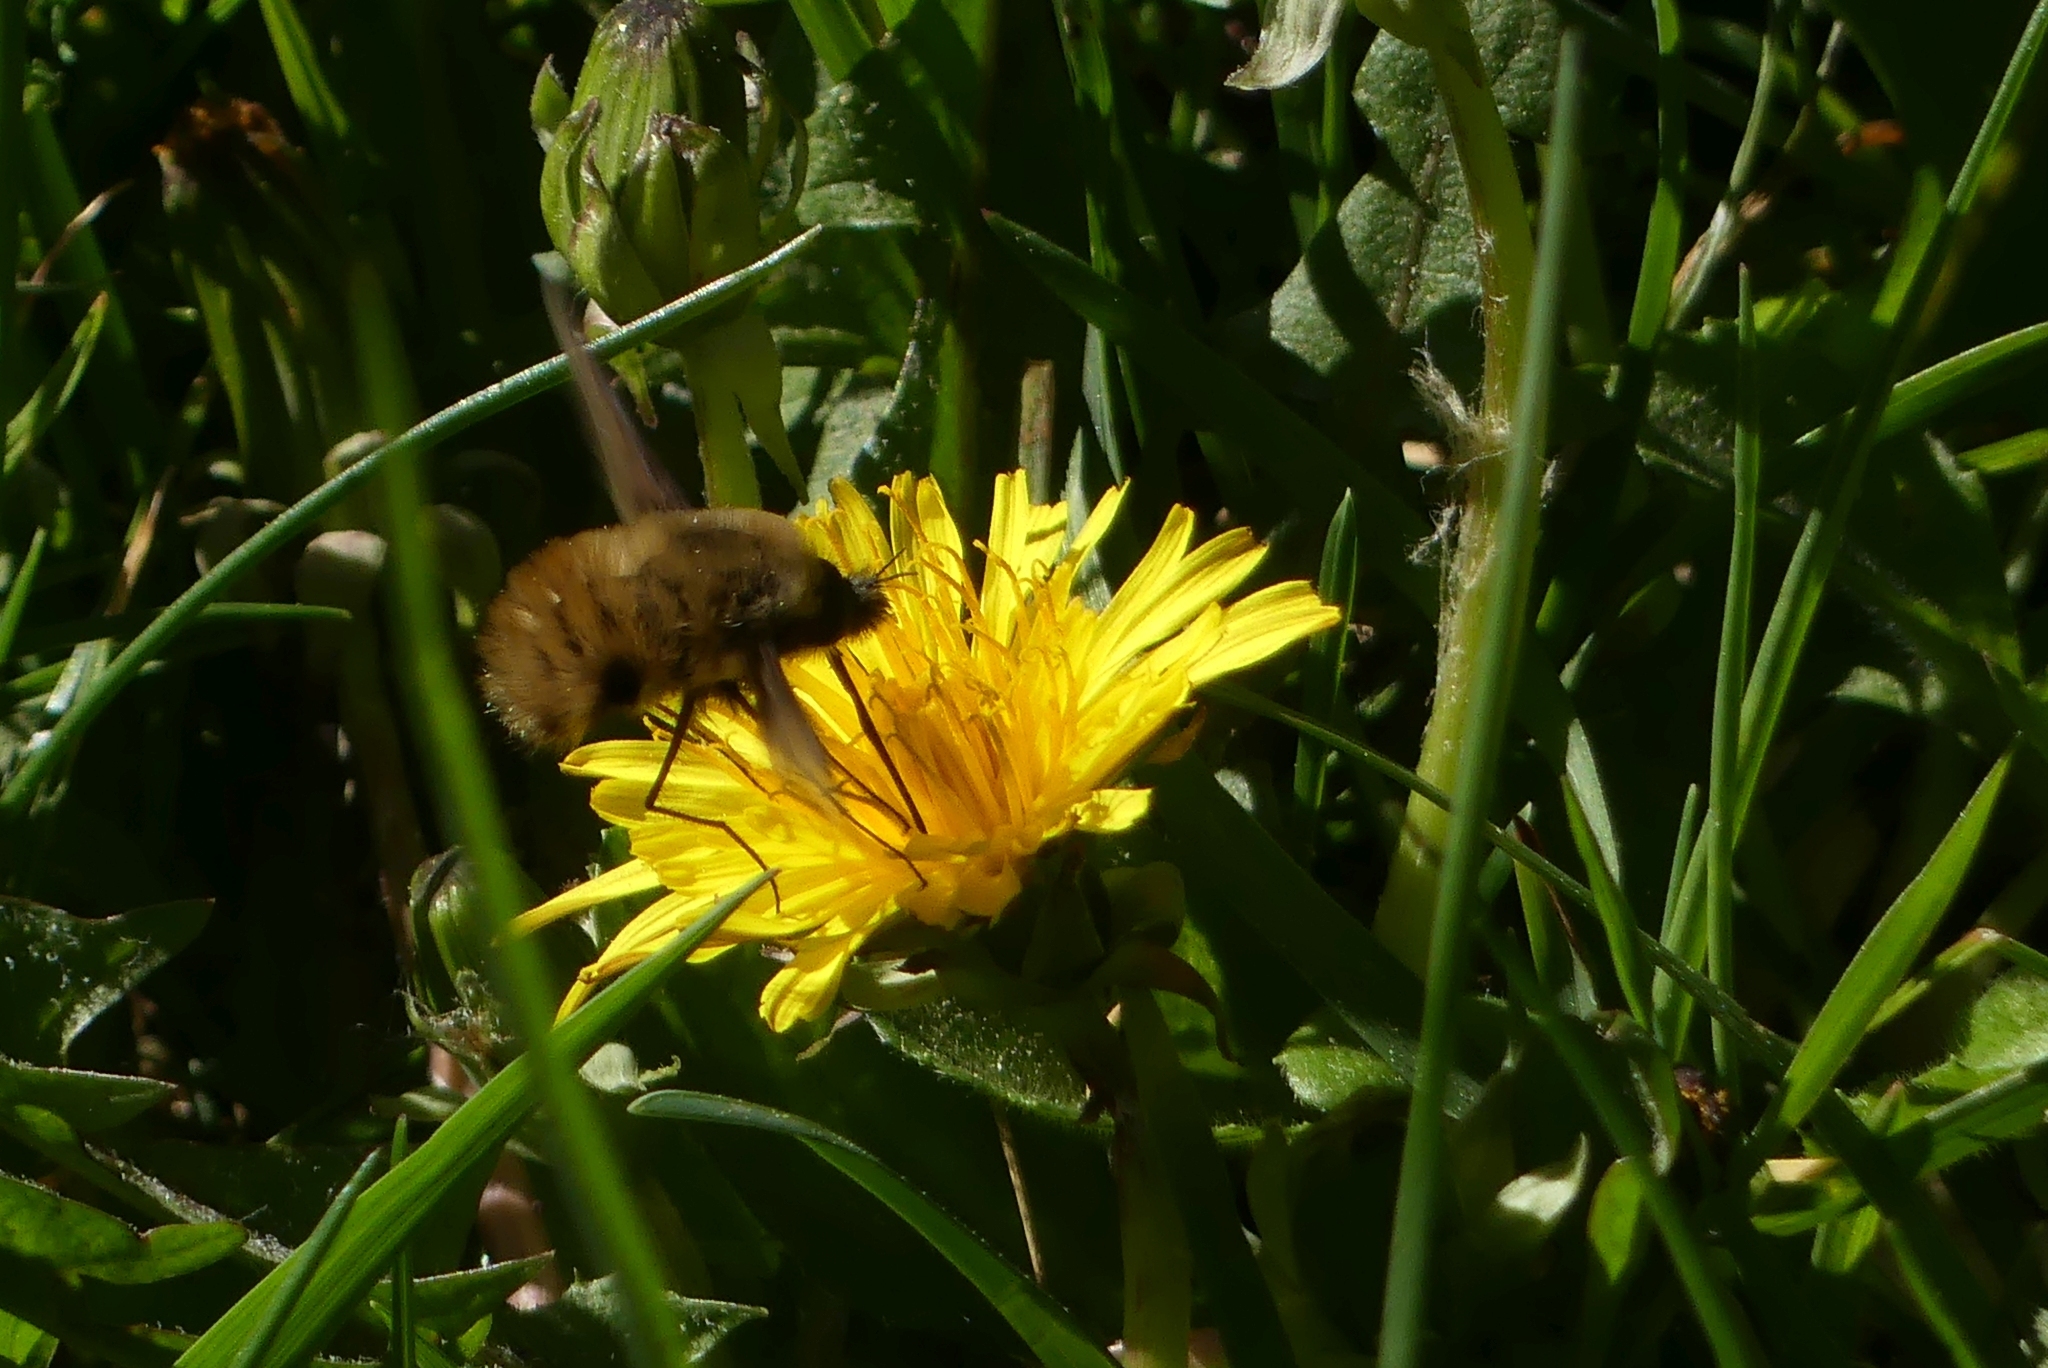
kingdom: Animalia
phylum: Arthropoda
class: Insecta
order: Diptera
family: Bombyliidae
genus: Bombylius
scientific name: Bombylius major
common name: Bee fly
